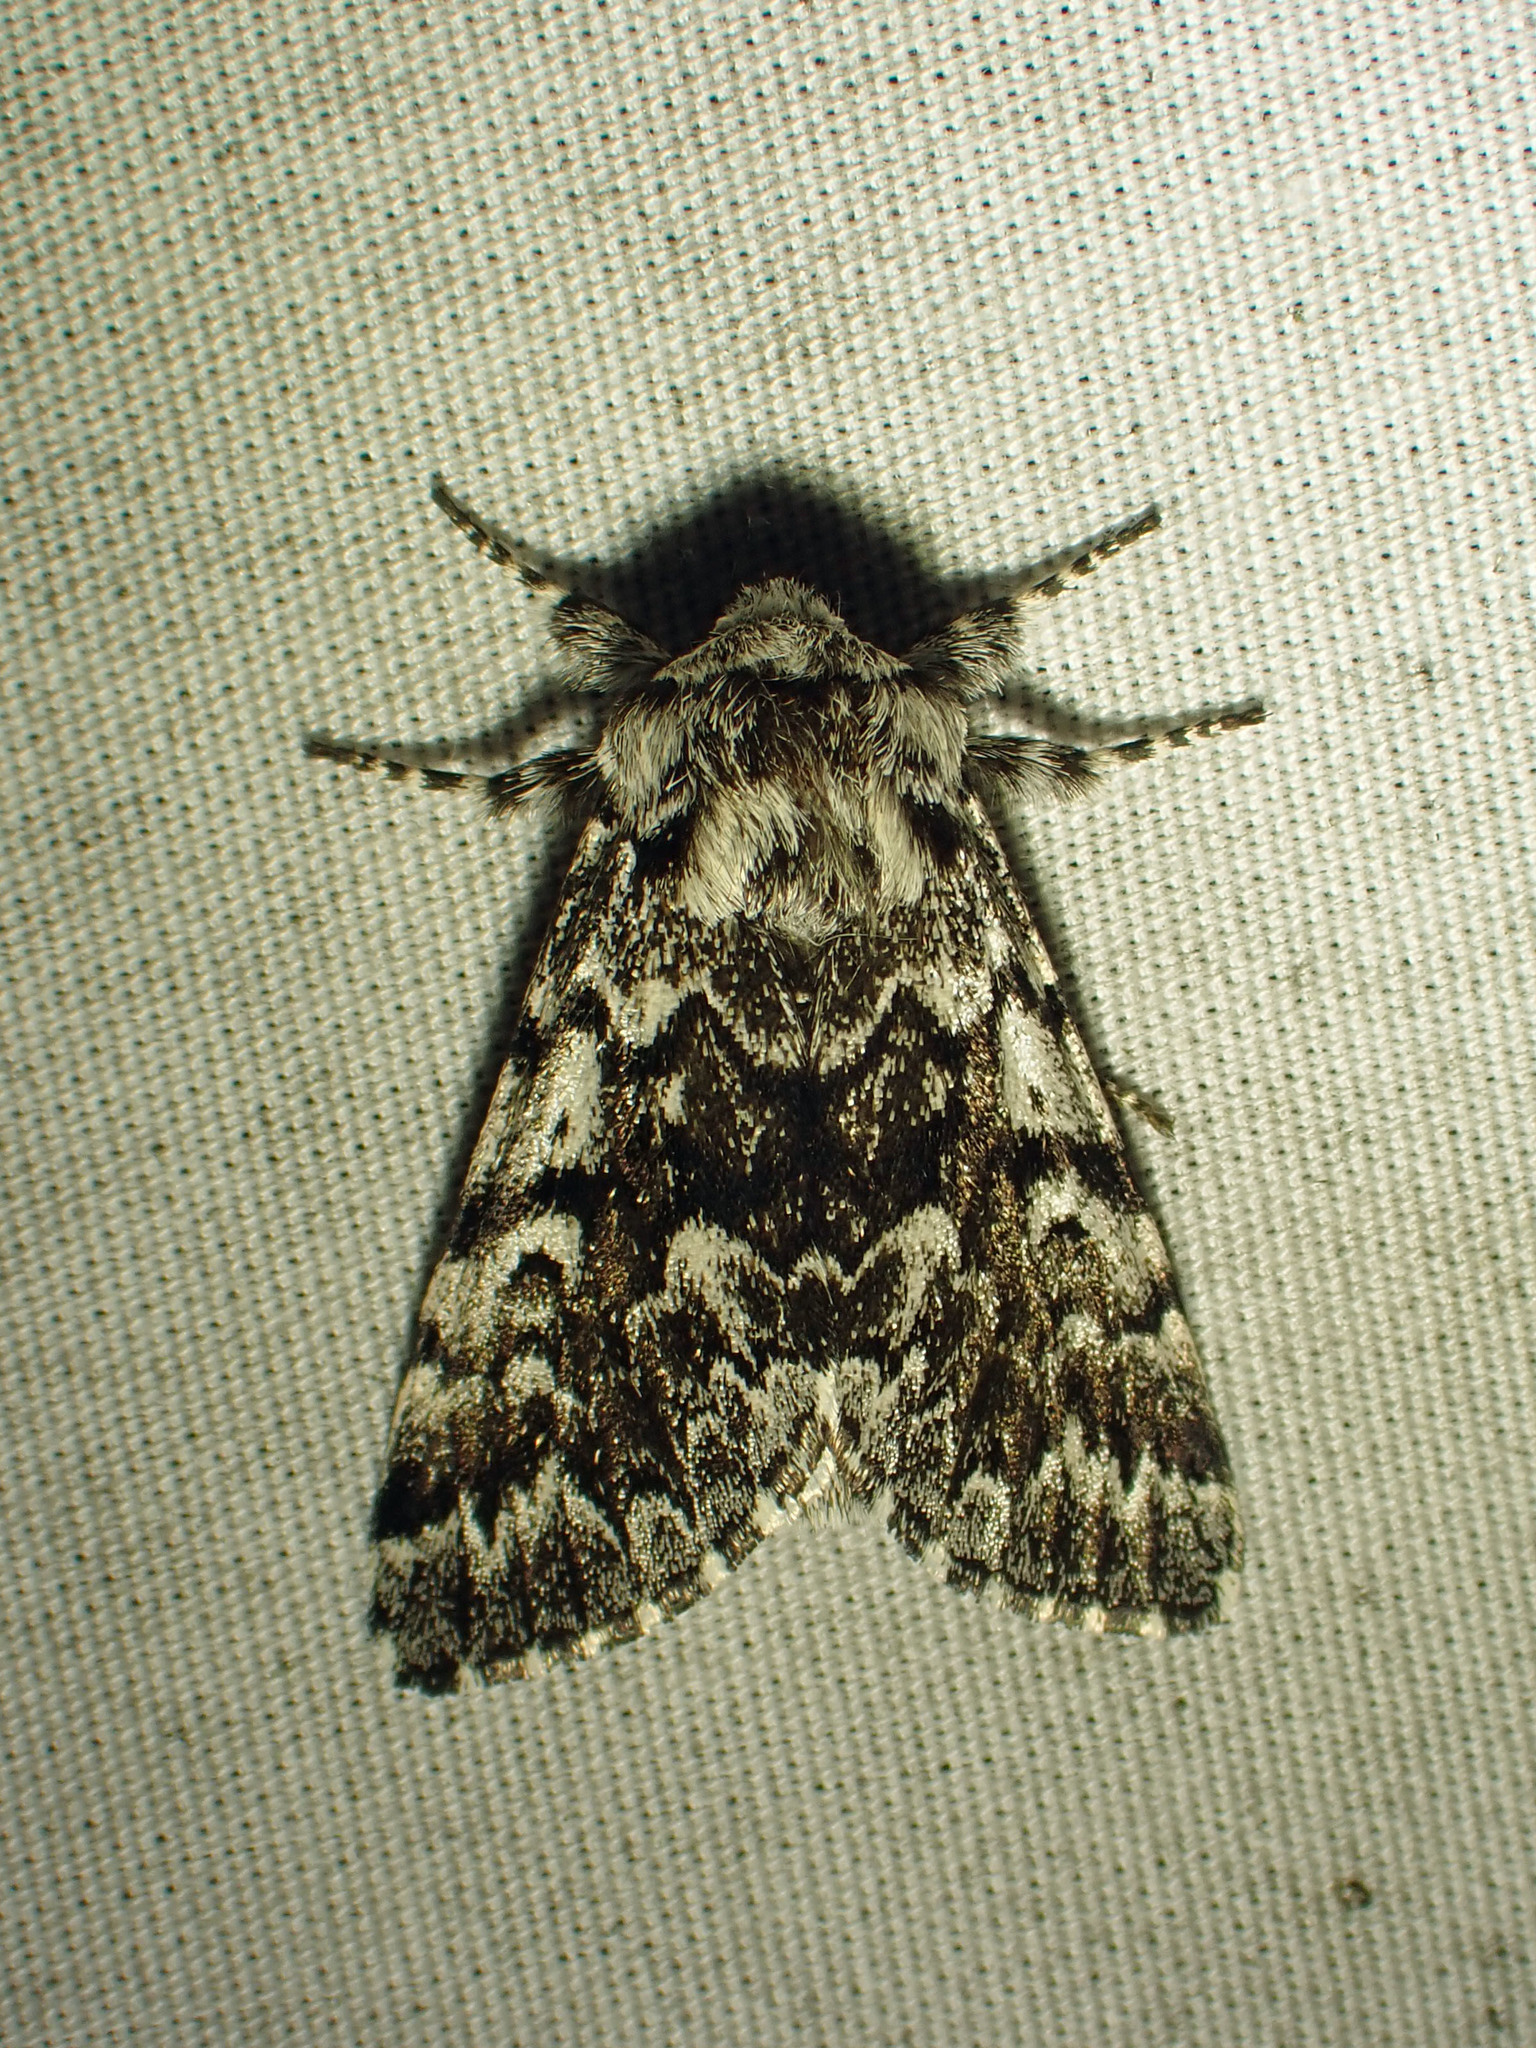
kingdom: Animalia
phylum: Arthropoda
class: Insecta
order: Lepidoptera
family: Noctuidae
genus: Panthea
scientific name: Panthea acronyctoides
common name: Black zigzag moth
